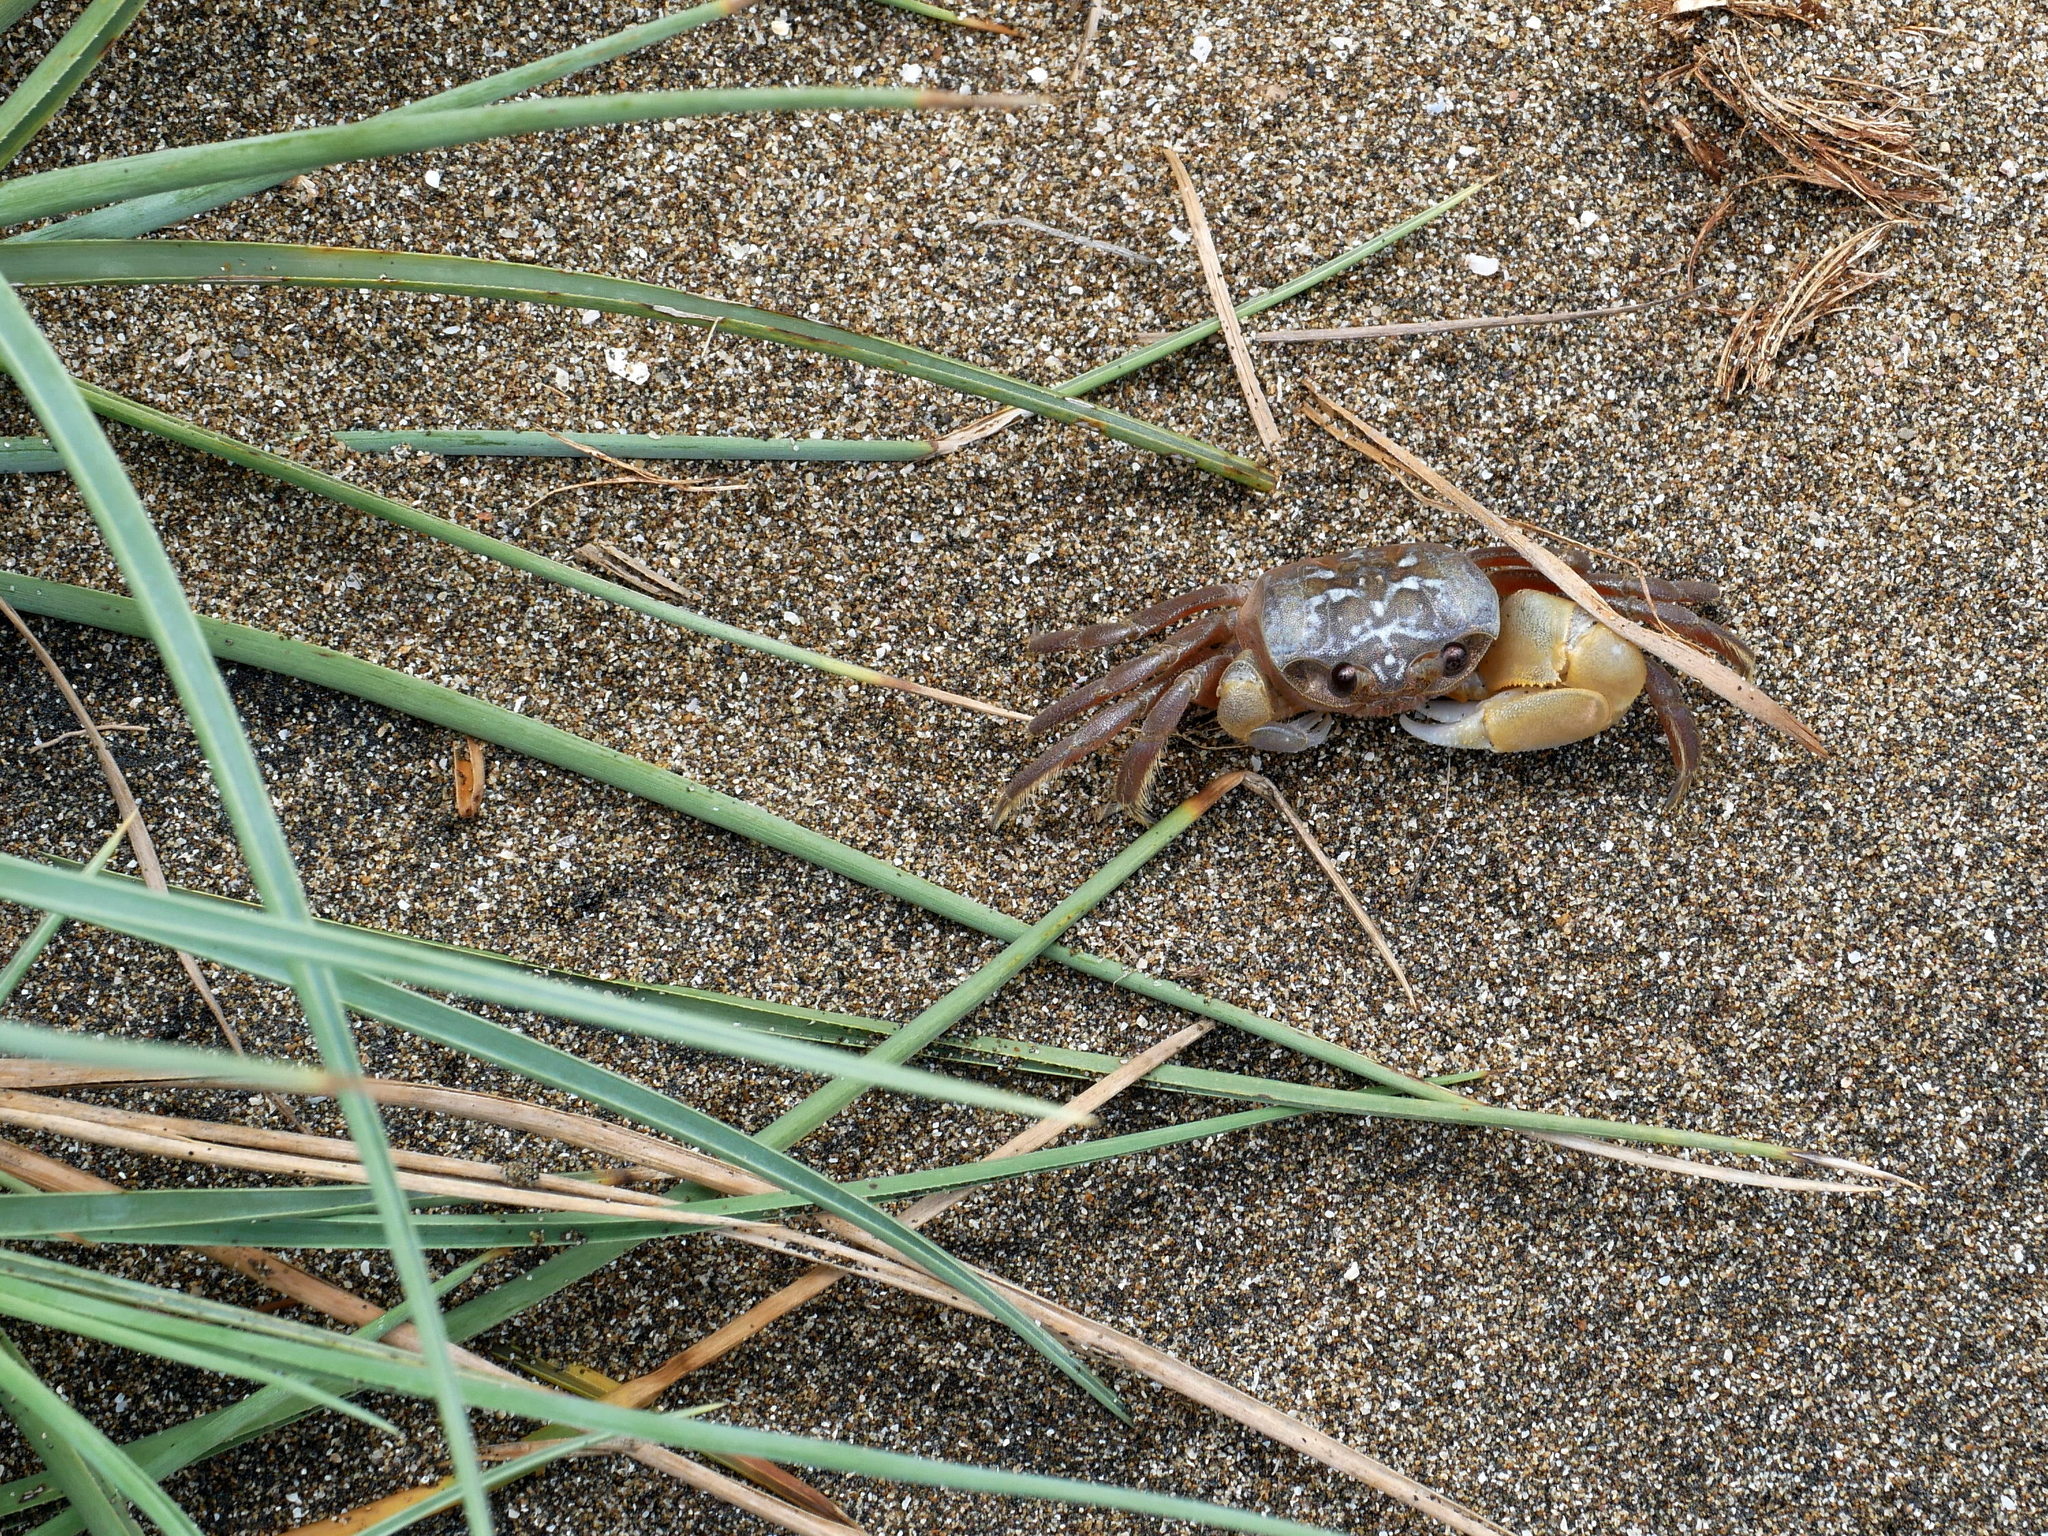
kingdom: Animalia
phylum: Arthropoda
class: Malacostraca
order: Decapoda
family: Ocypodidae
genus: Ocypode
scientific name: Ocypode sinensis
